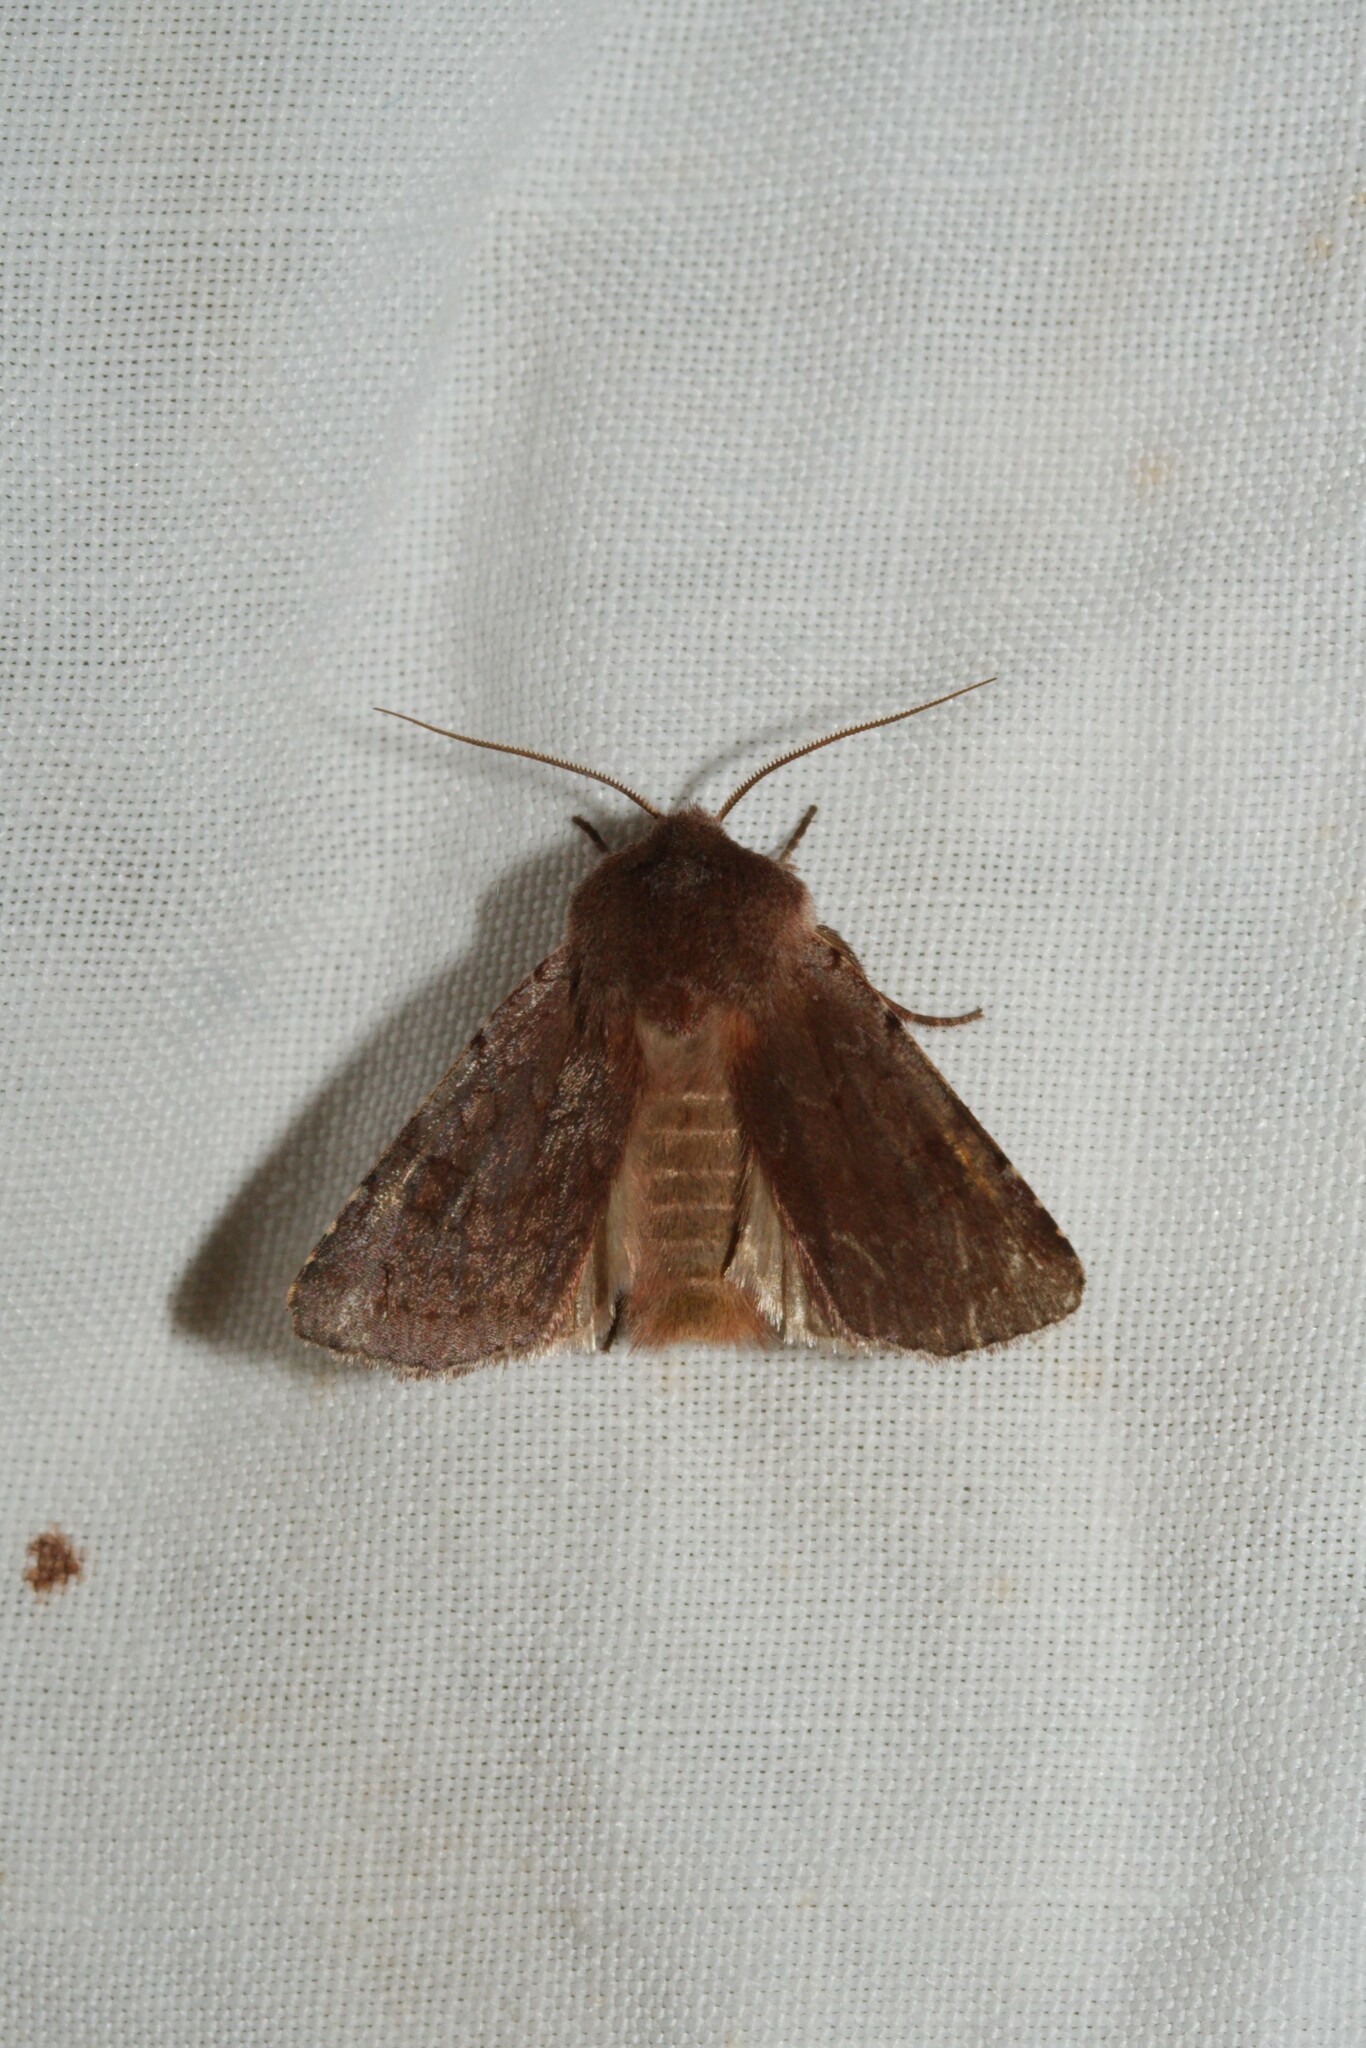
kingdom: Animalia
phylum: Arthropoda
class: Insecta
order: Lepidoptera
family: Noctuidae
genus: Cerastis
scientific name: Cerastis rubricosa
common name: Red chestnut
